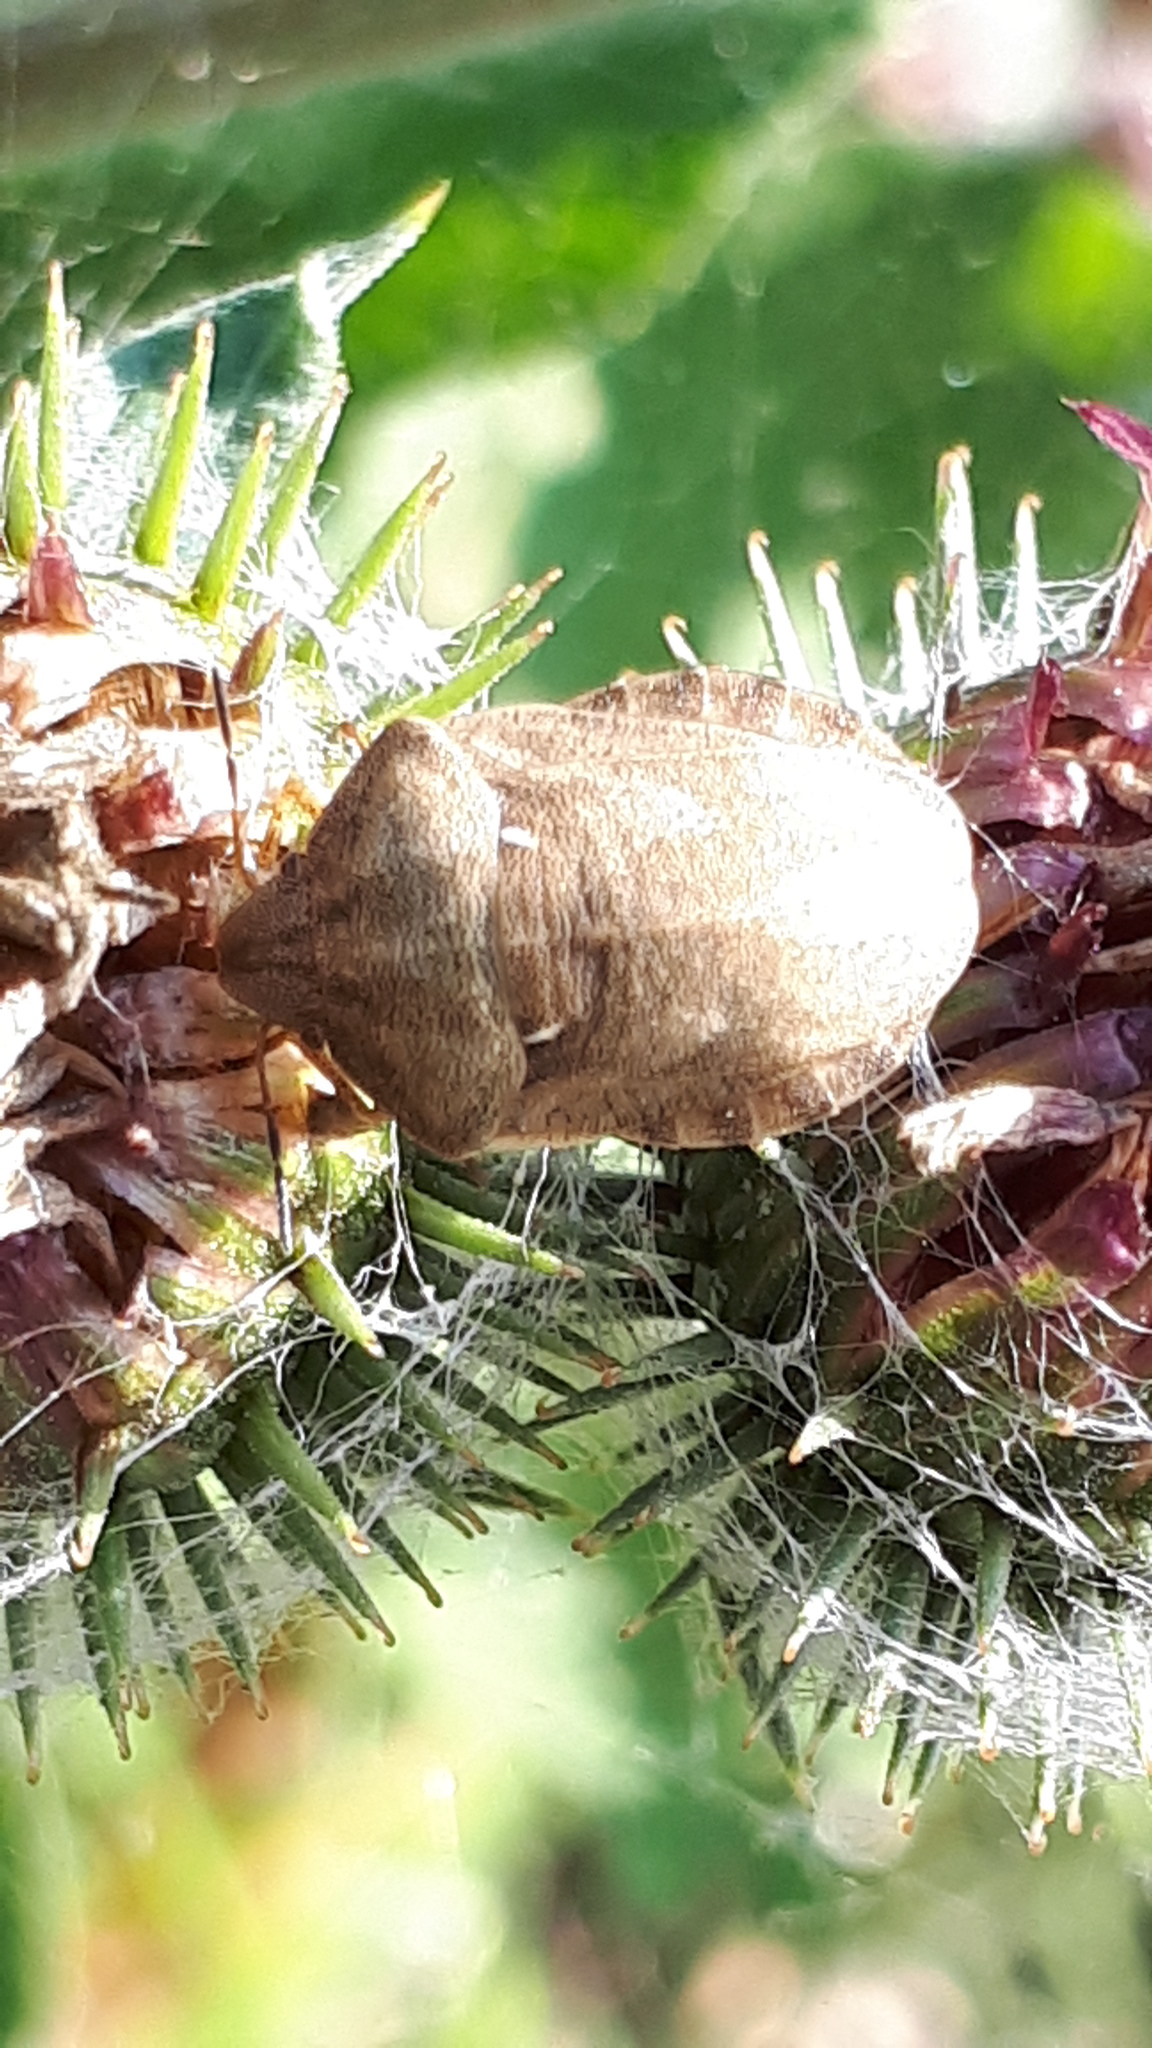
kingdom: Animalia
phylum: Arthropoda
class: Insecta
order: Hemiptera
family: Scutelleridae
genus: Eurygaster
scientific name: Eurygaster testudinaria
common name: Tortoise bug
